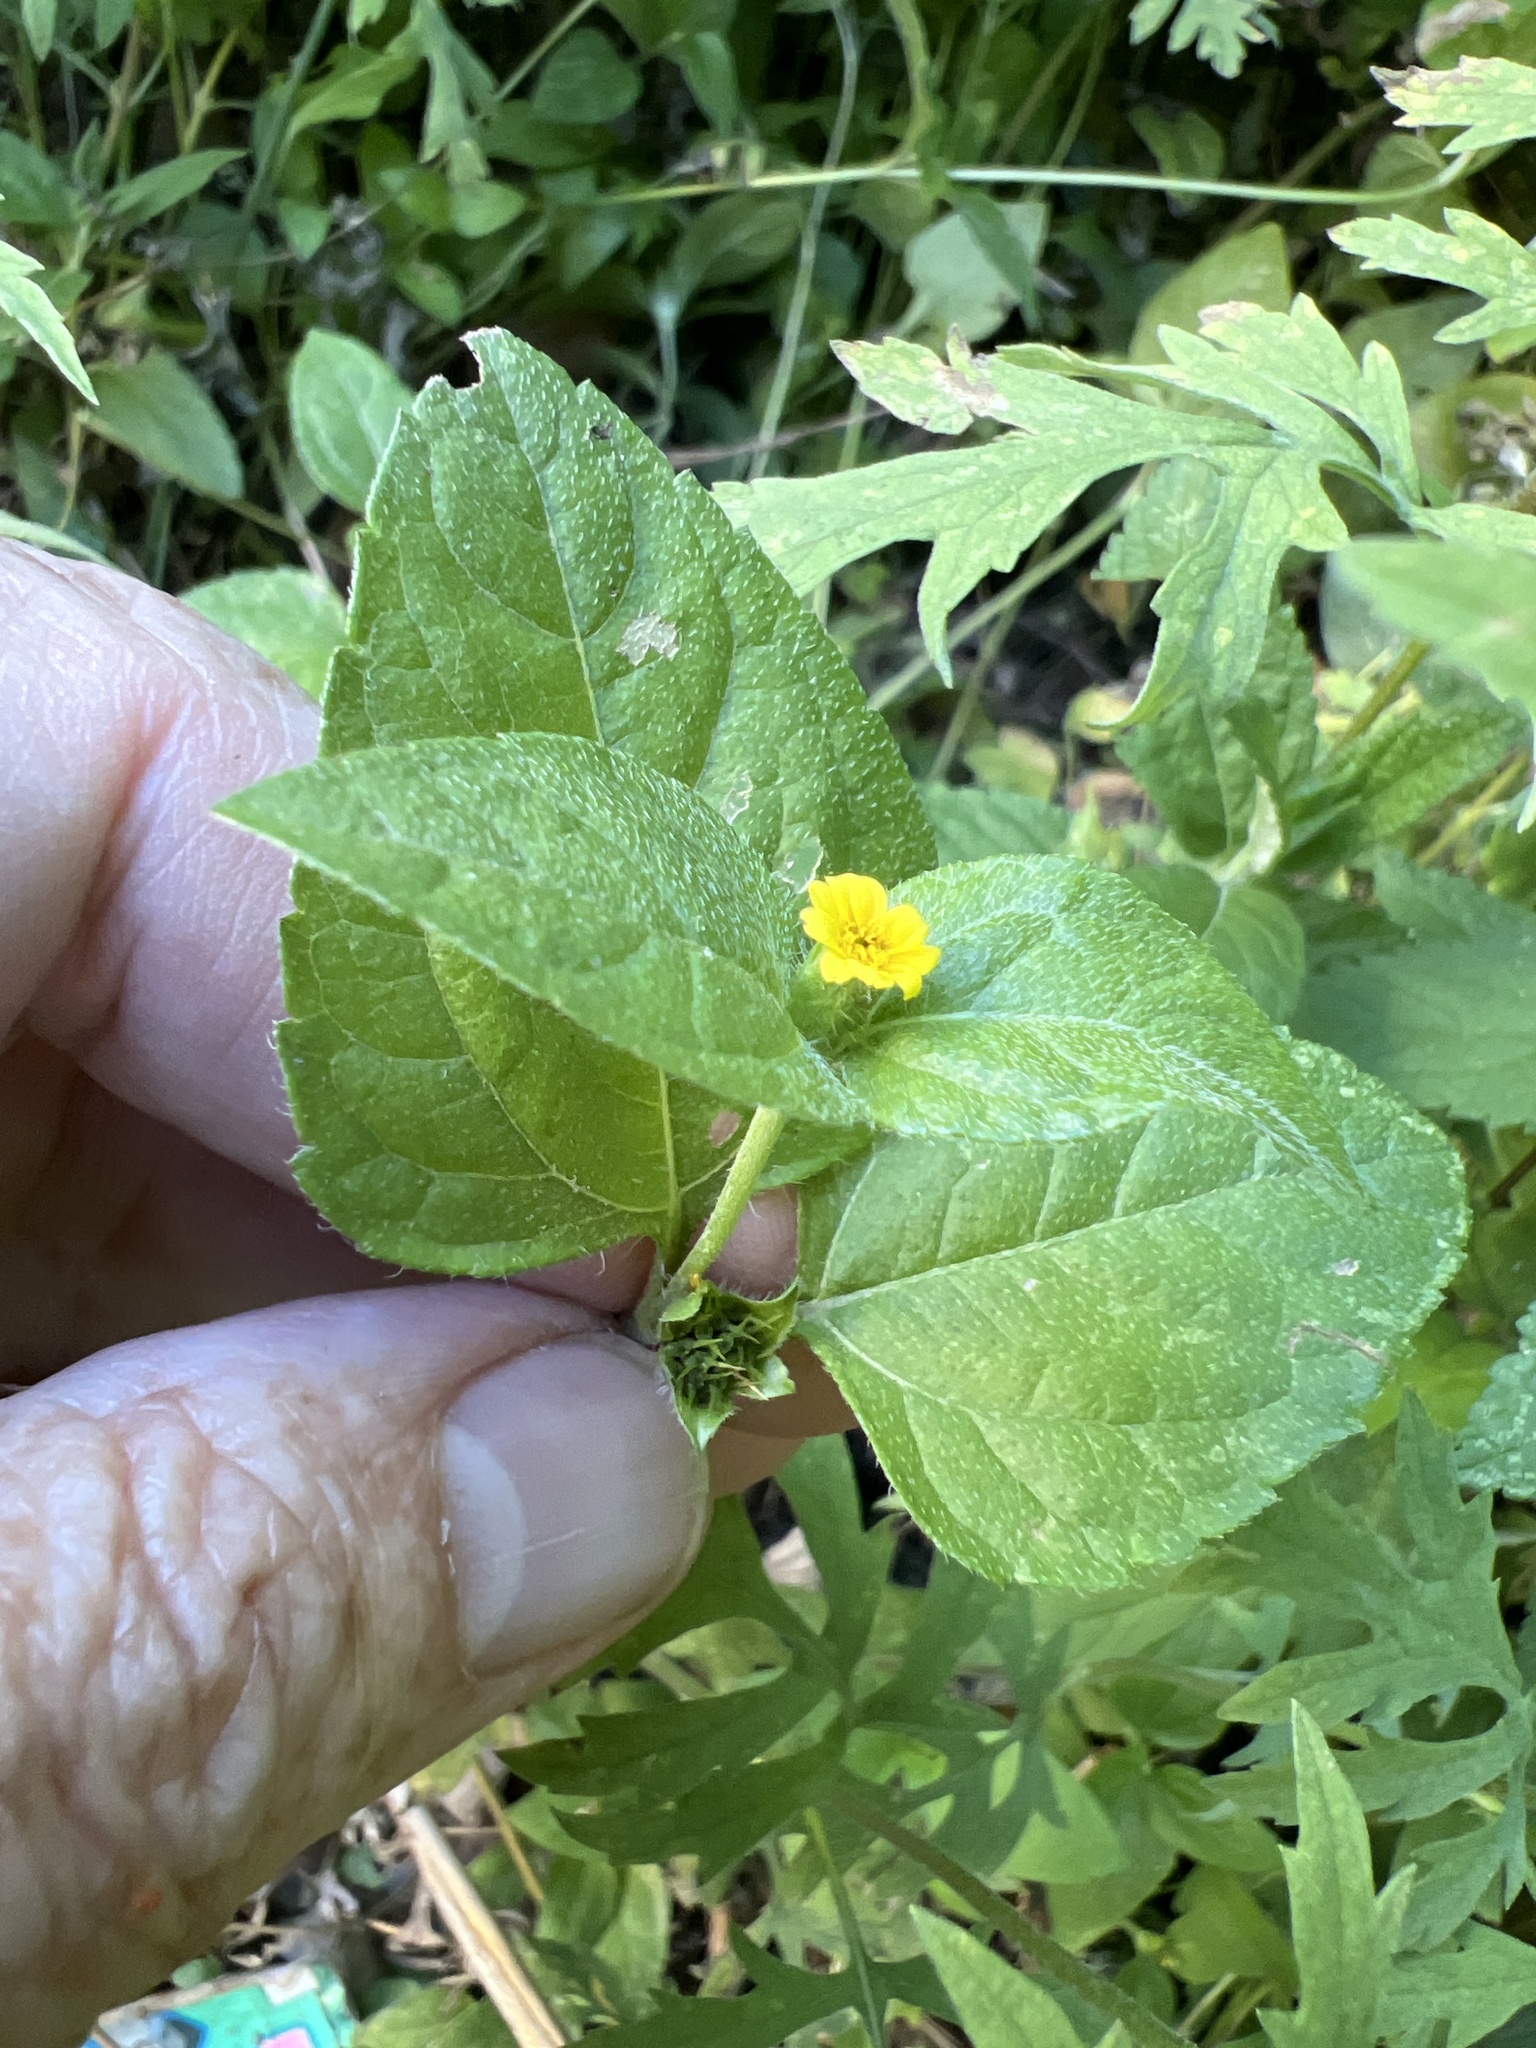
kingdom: Plantae
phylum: Tracheophyta
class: Magnoliopsida
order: Asterales
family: Asteraceae
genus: Calyptocarpus
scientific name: Calyptocarpus vialis
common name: Straggler daisy
